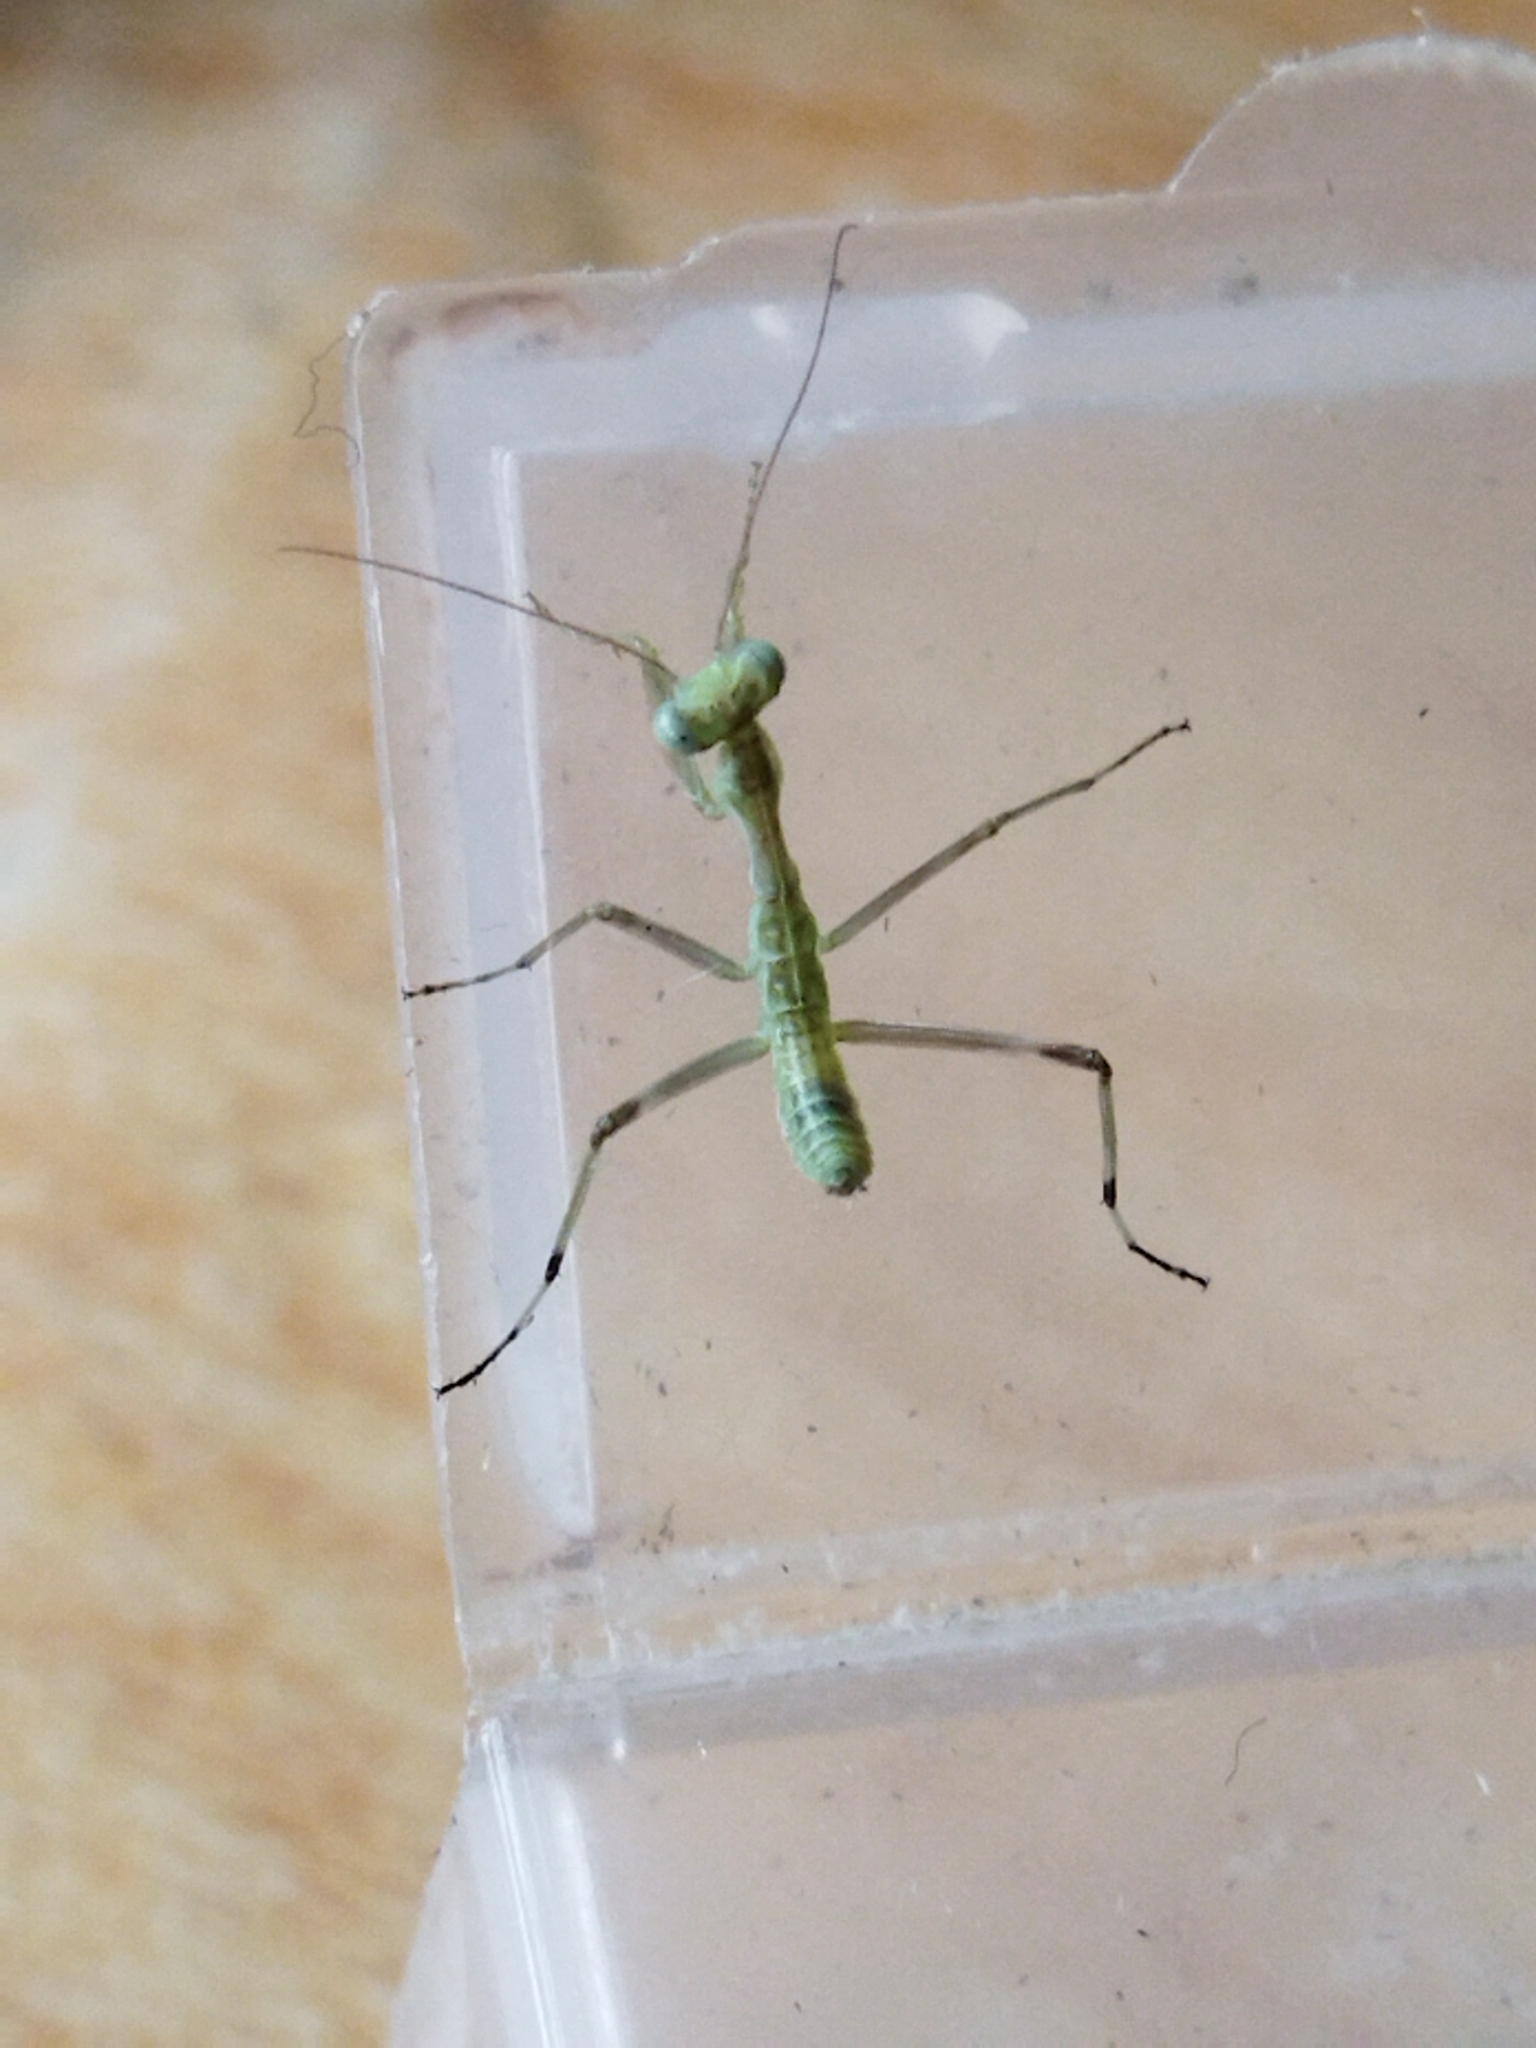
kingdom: Animalia
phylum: Arthropoda
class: Insecta
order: Mantodea
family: Mantidae
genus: Hierodula
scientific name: Hierodula transcaucasica
